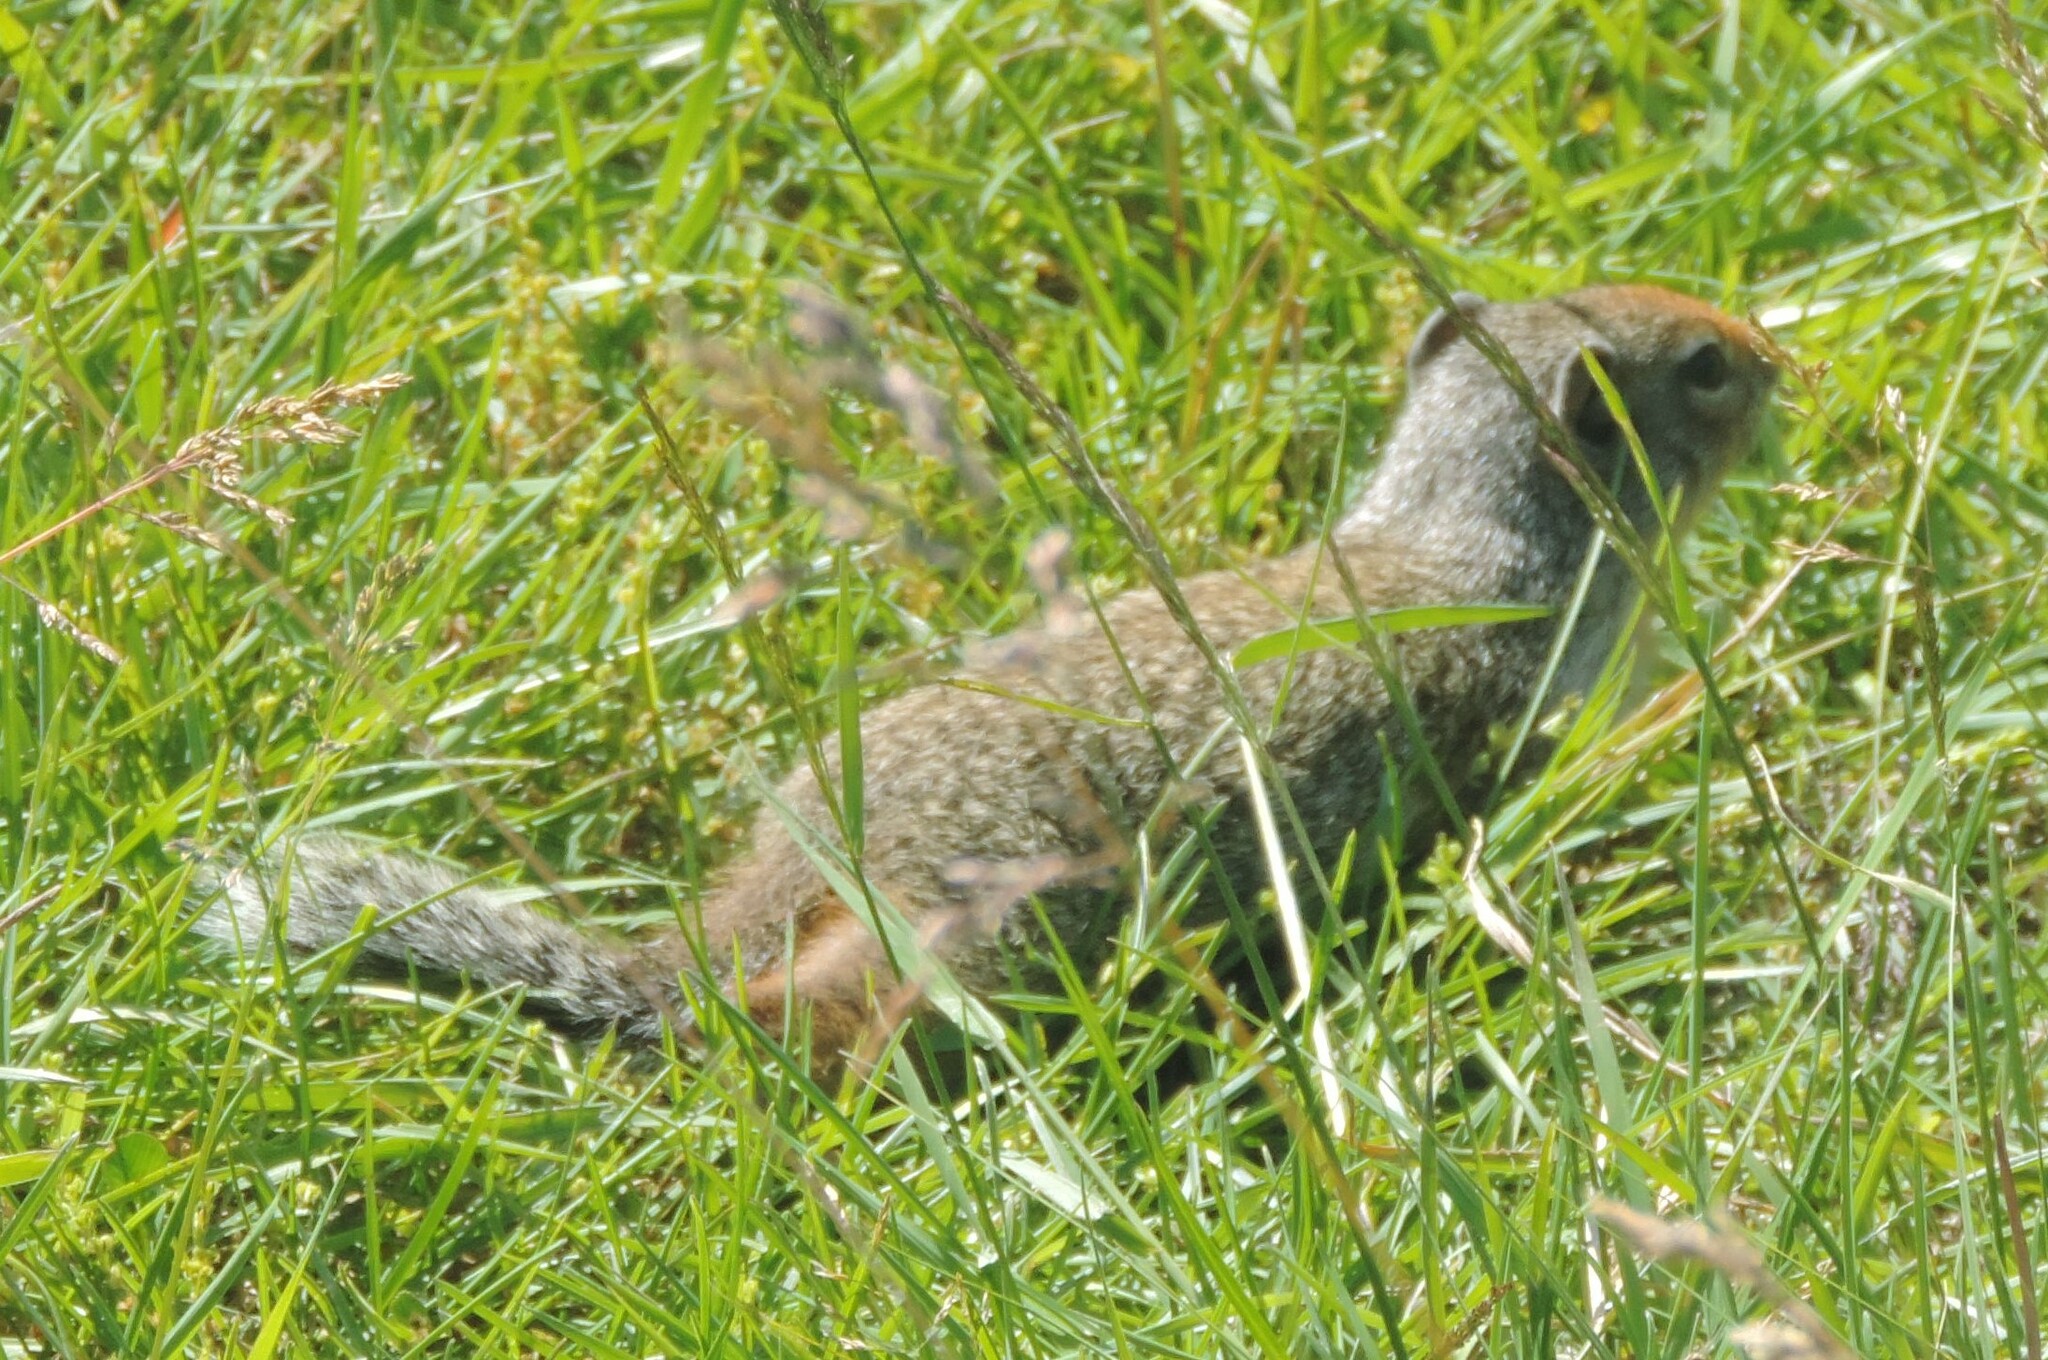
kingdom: Animalia
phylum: Chordata
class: Mammalia
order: Rodentia
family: Sciuridae
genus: Urocitellus
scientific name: Urocitellus columbianus
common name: Columbian ground squirrel
